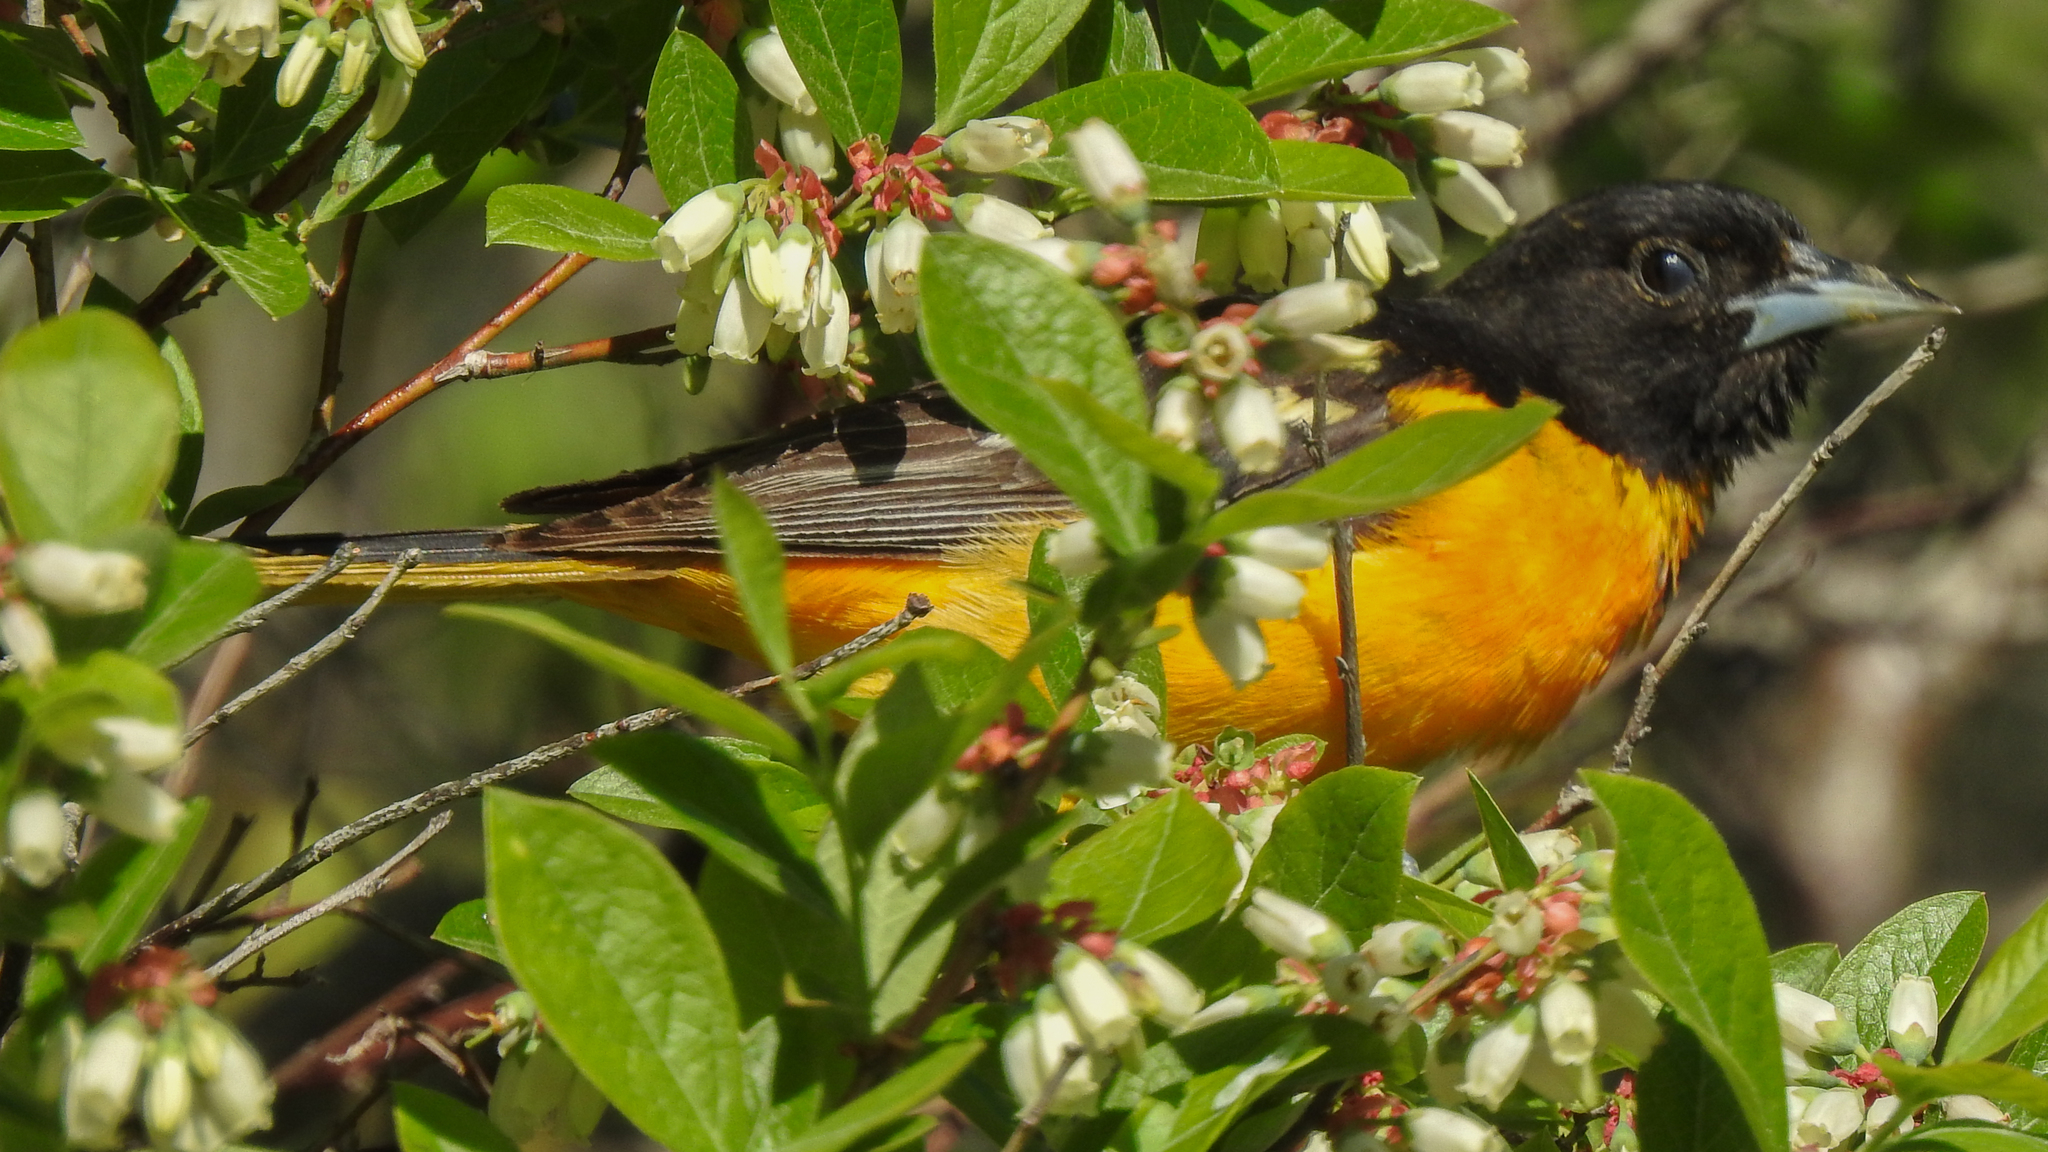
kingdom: Animalia
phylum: Chordata
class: Aves
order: Passeriformes
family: Icteridae
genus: Icterus
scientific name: Icterus galbula
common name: Baltimore oriole
